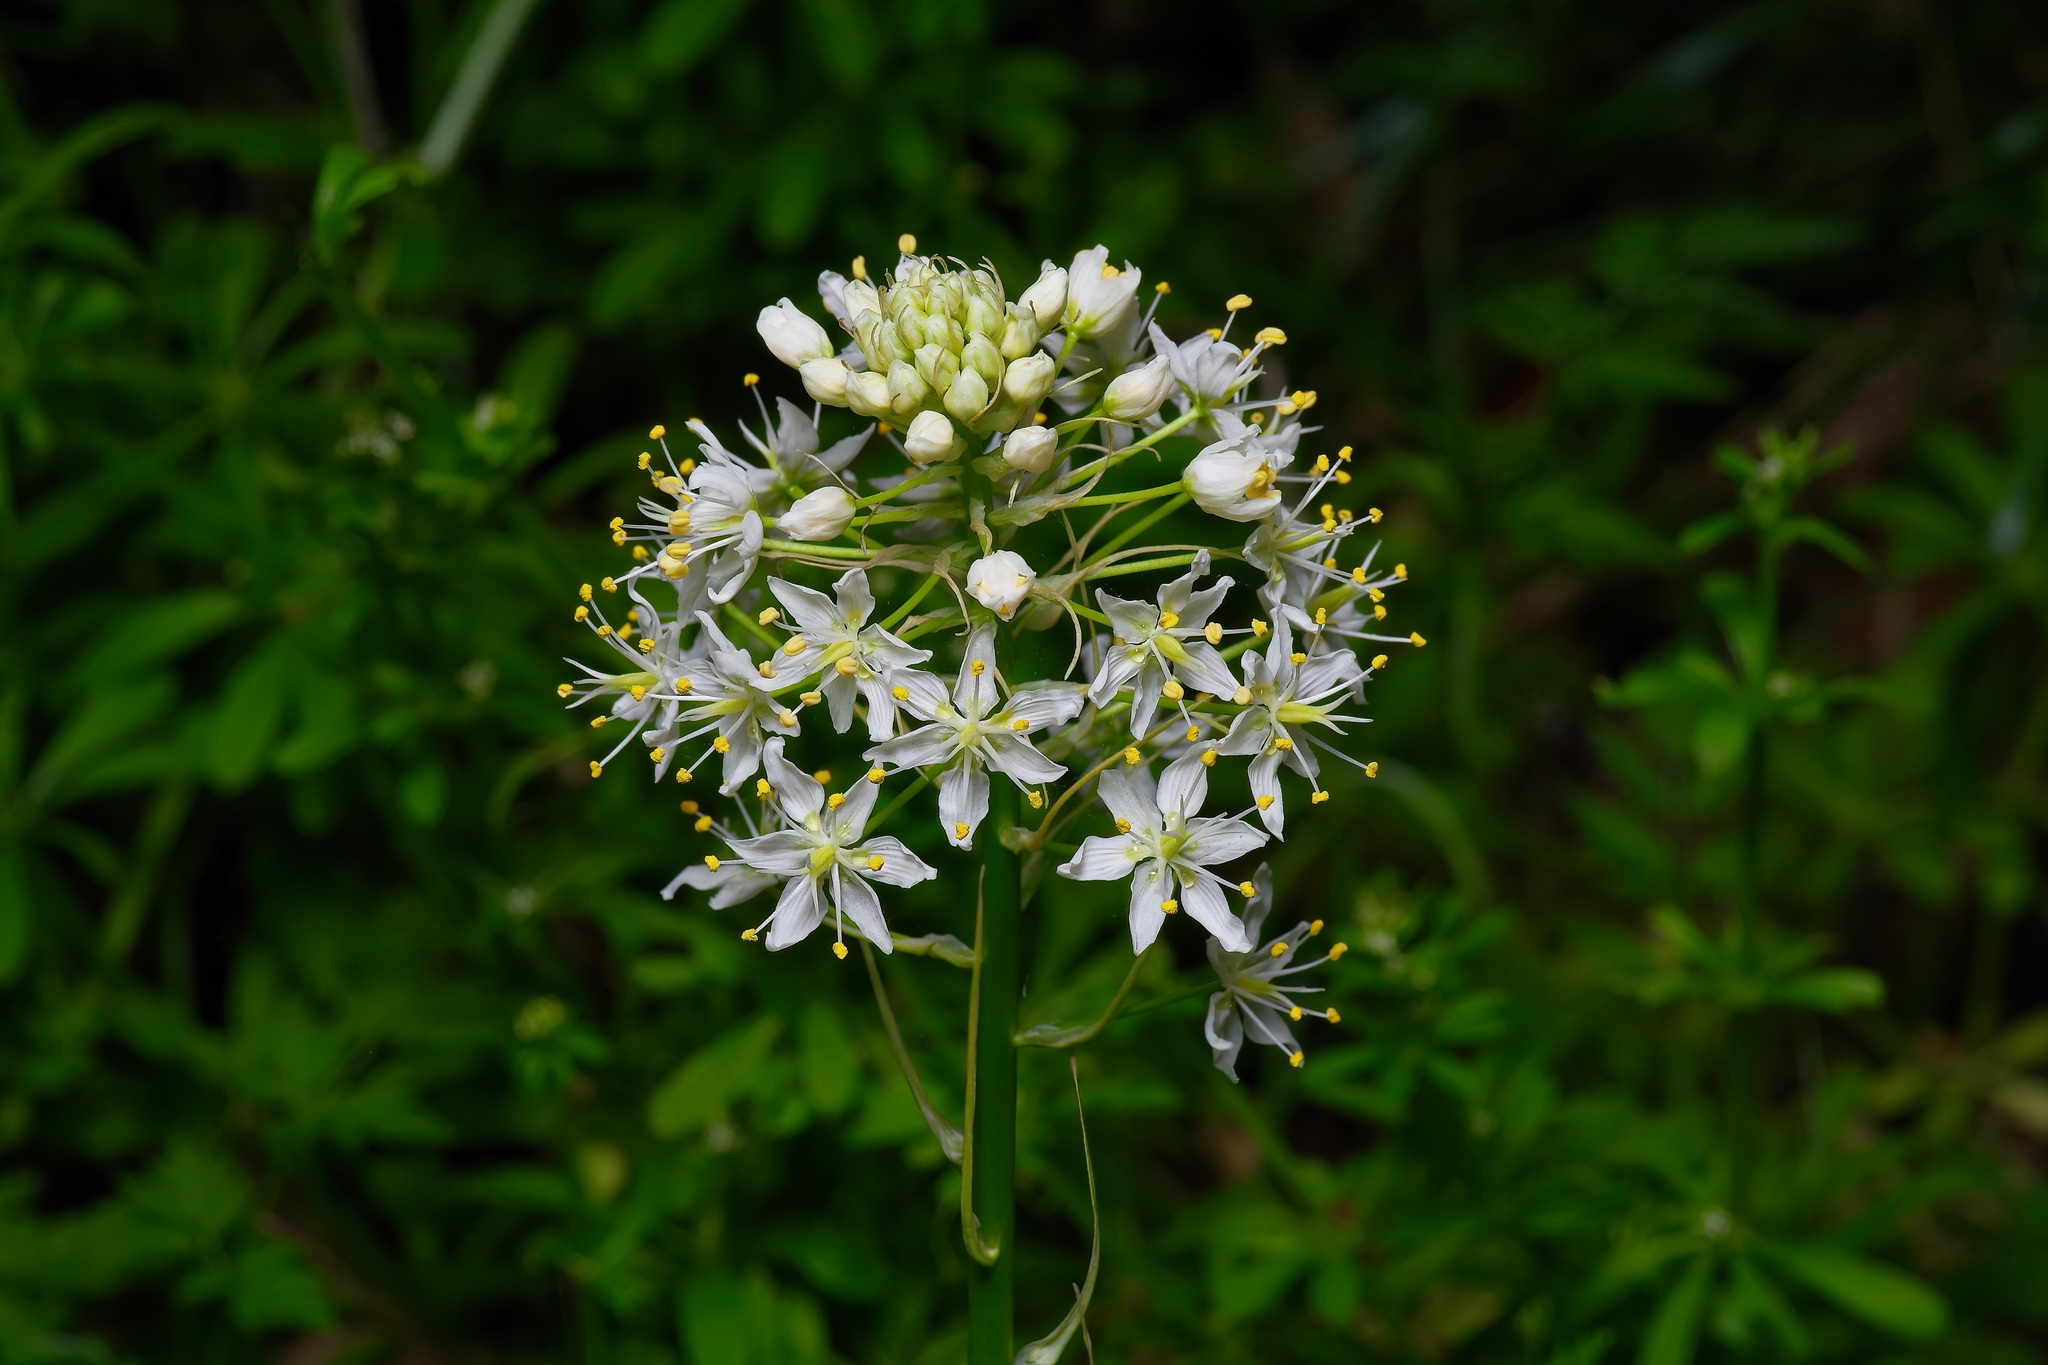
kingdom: Plantae
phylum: Tracheophyta
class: Liliopsida
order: Liliales
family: Melanthiaceae
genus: Toxicoscordion
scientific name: Toxicoscordion nuttallii
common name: Poison sego
